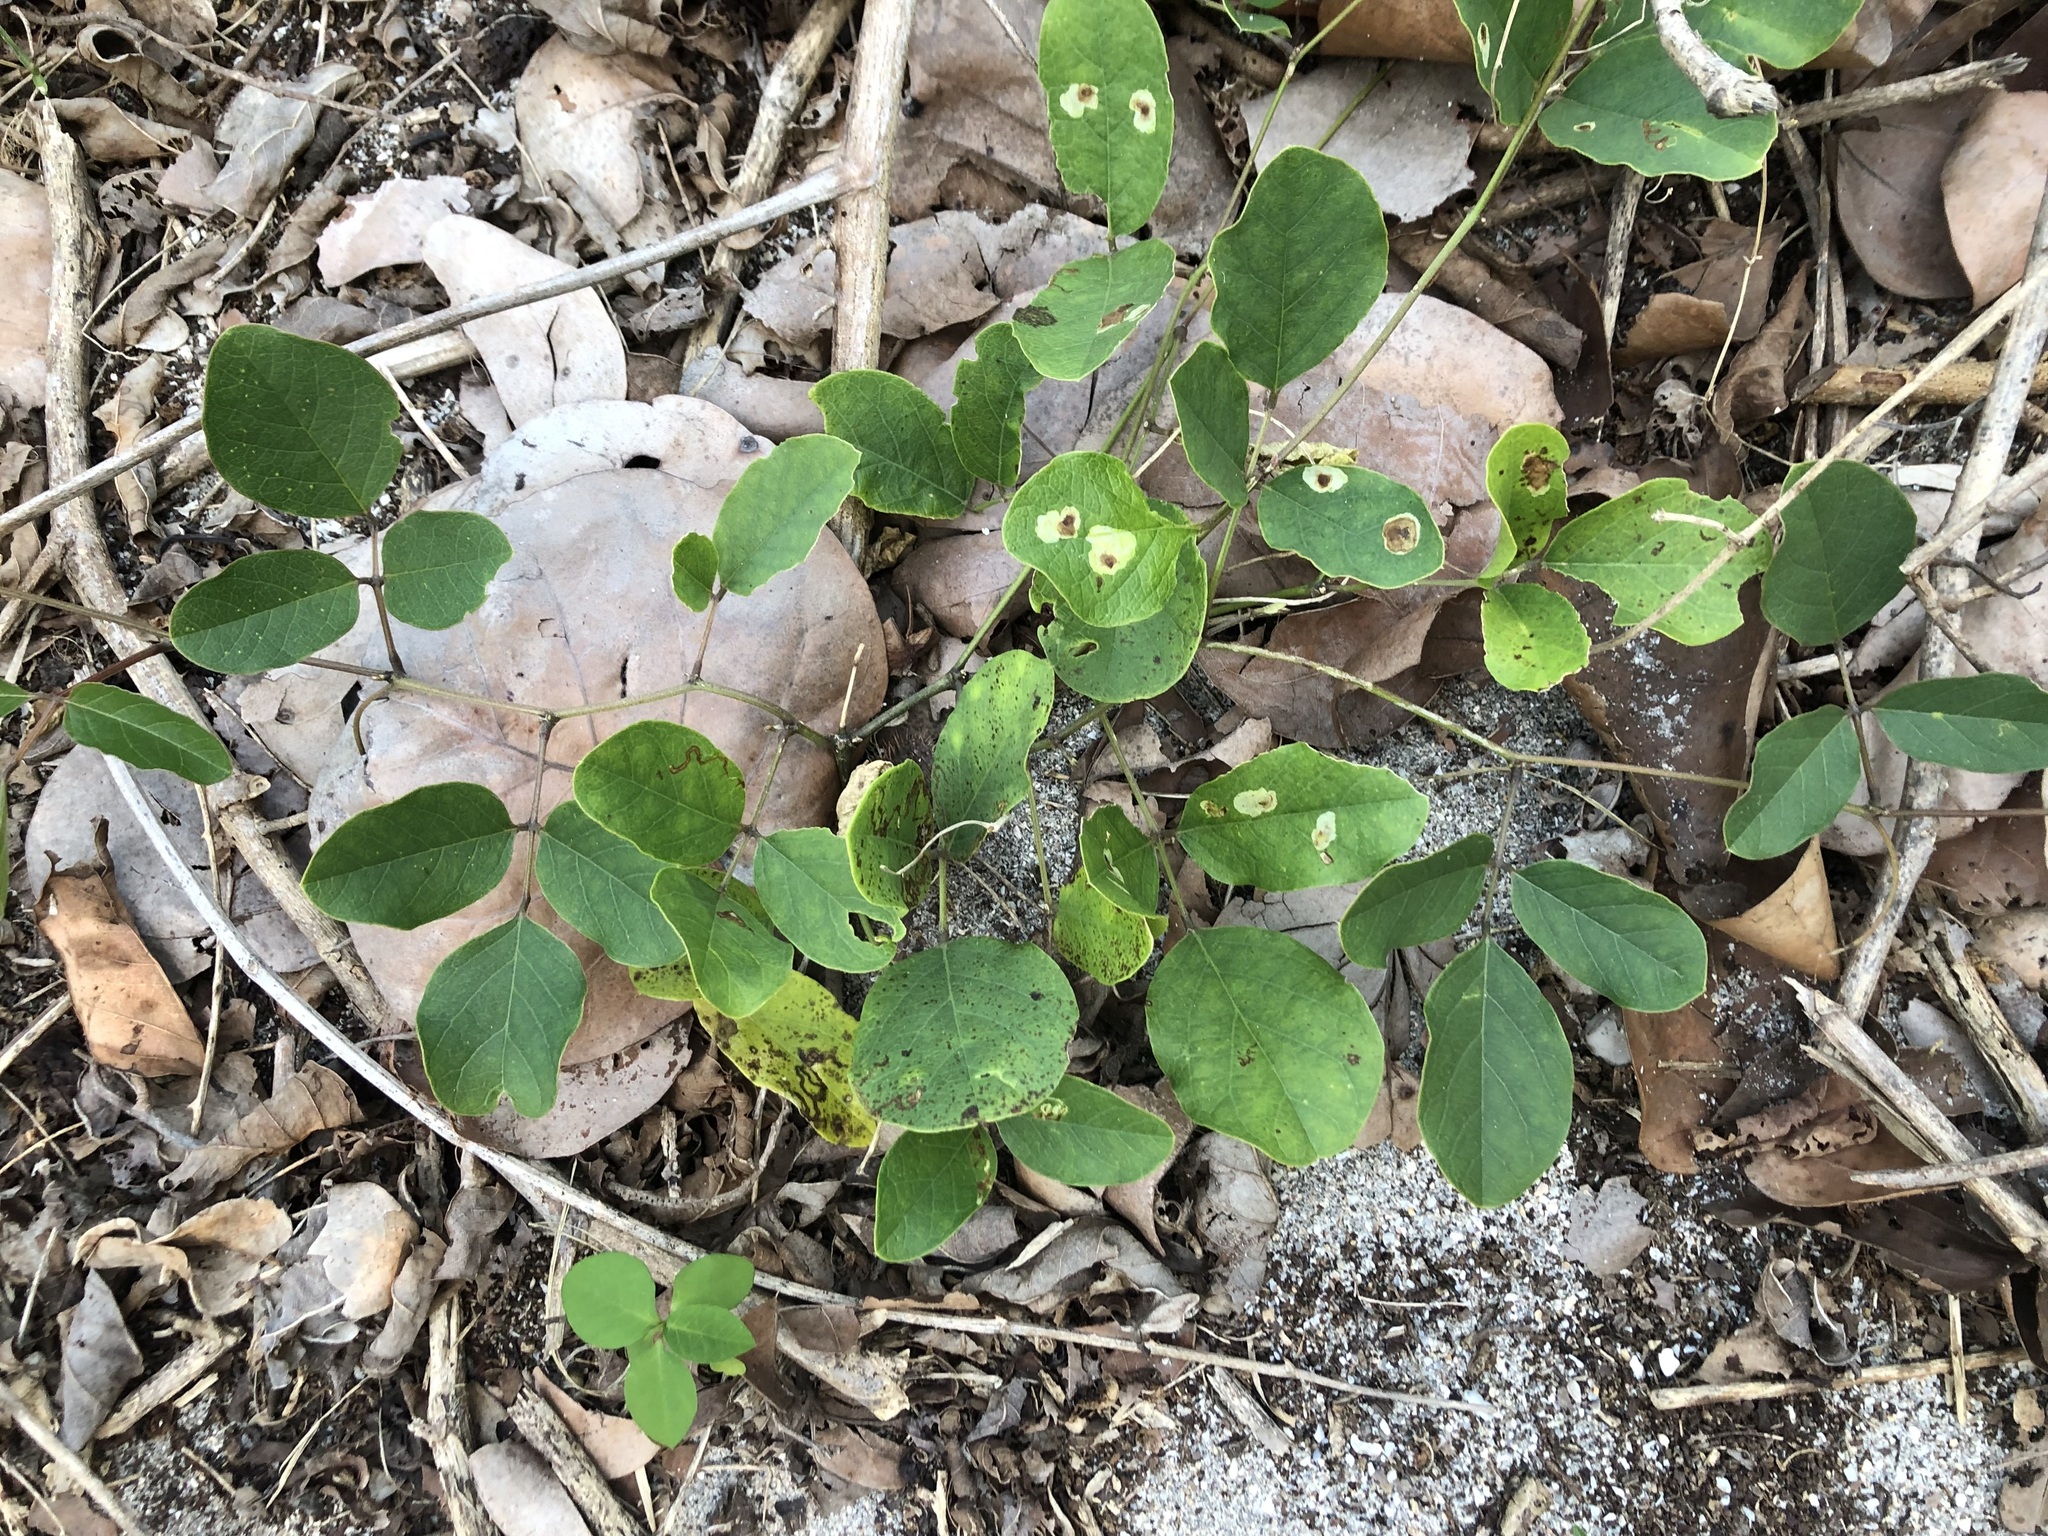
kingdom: Plantae
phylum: Tracheophyta
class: Magnoliopsida
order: Fabales
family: Fabaceae
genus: Canavalia
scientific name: Canavalia rosea
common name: Beach-bean
